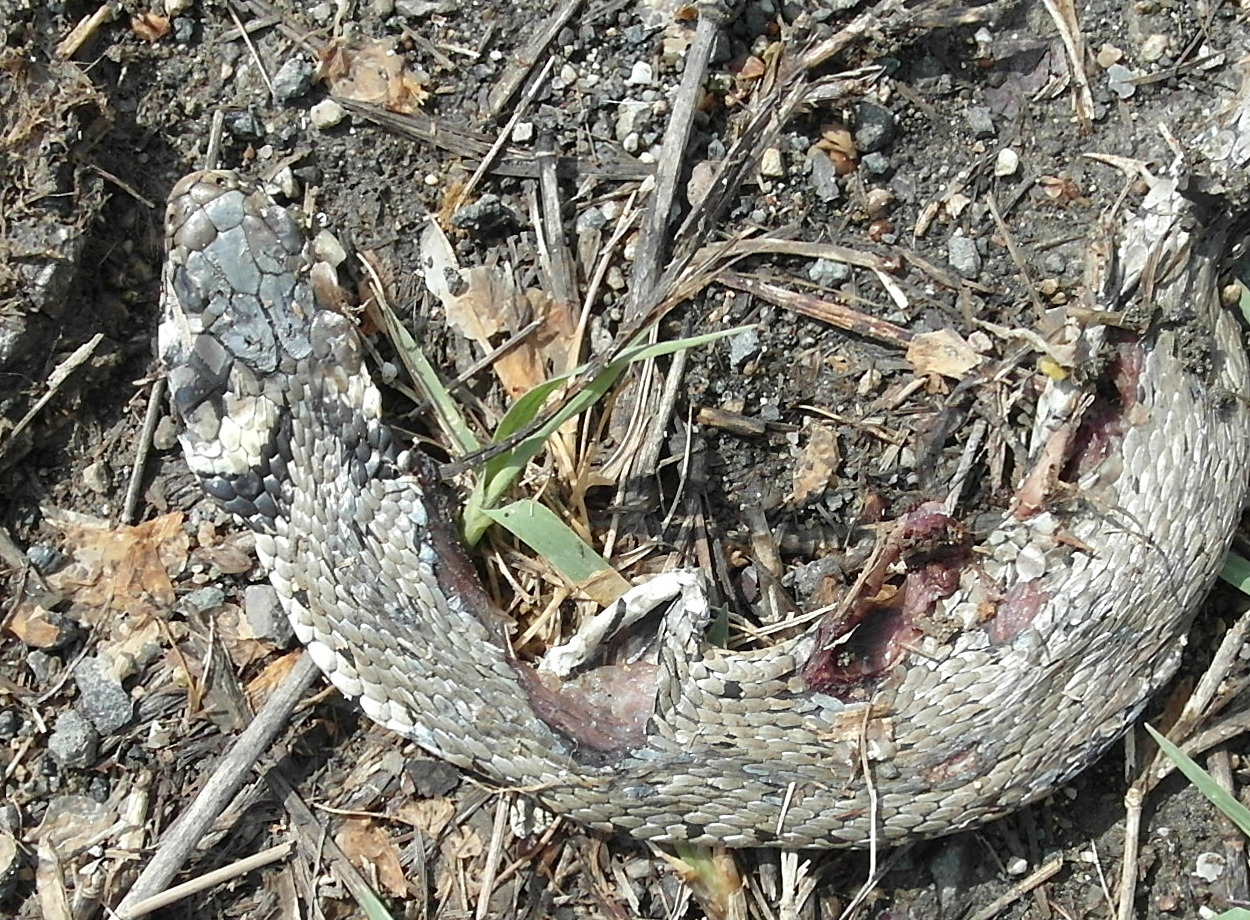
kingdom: Animalia
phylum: Chordata
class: Squamata
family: Colubridae
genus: Natrix
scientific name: Natrix natrix
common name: Grass snake
